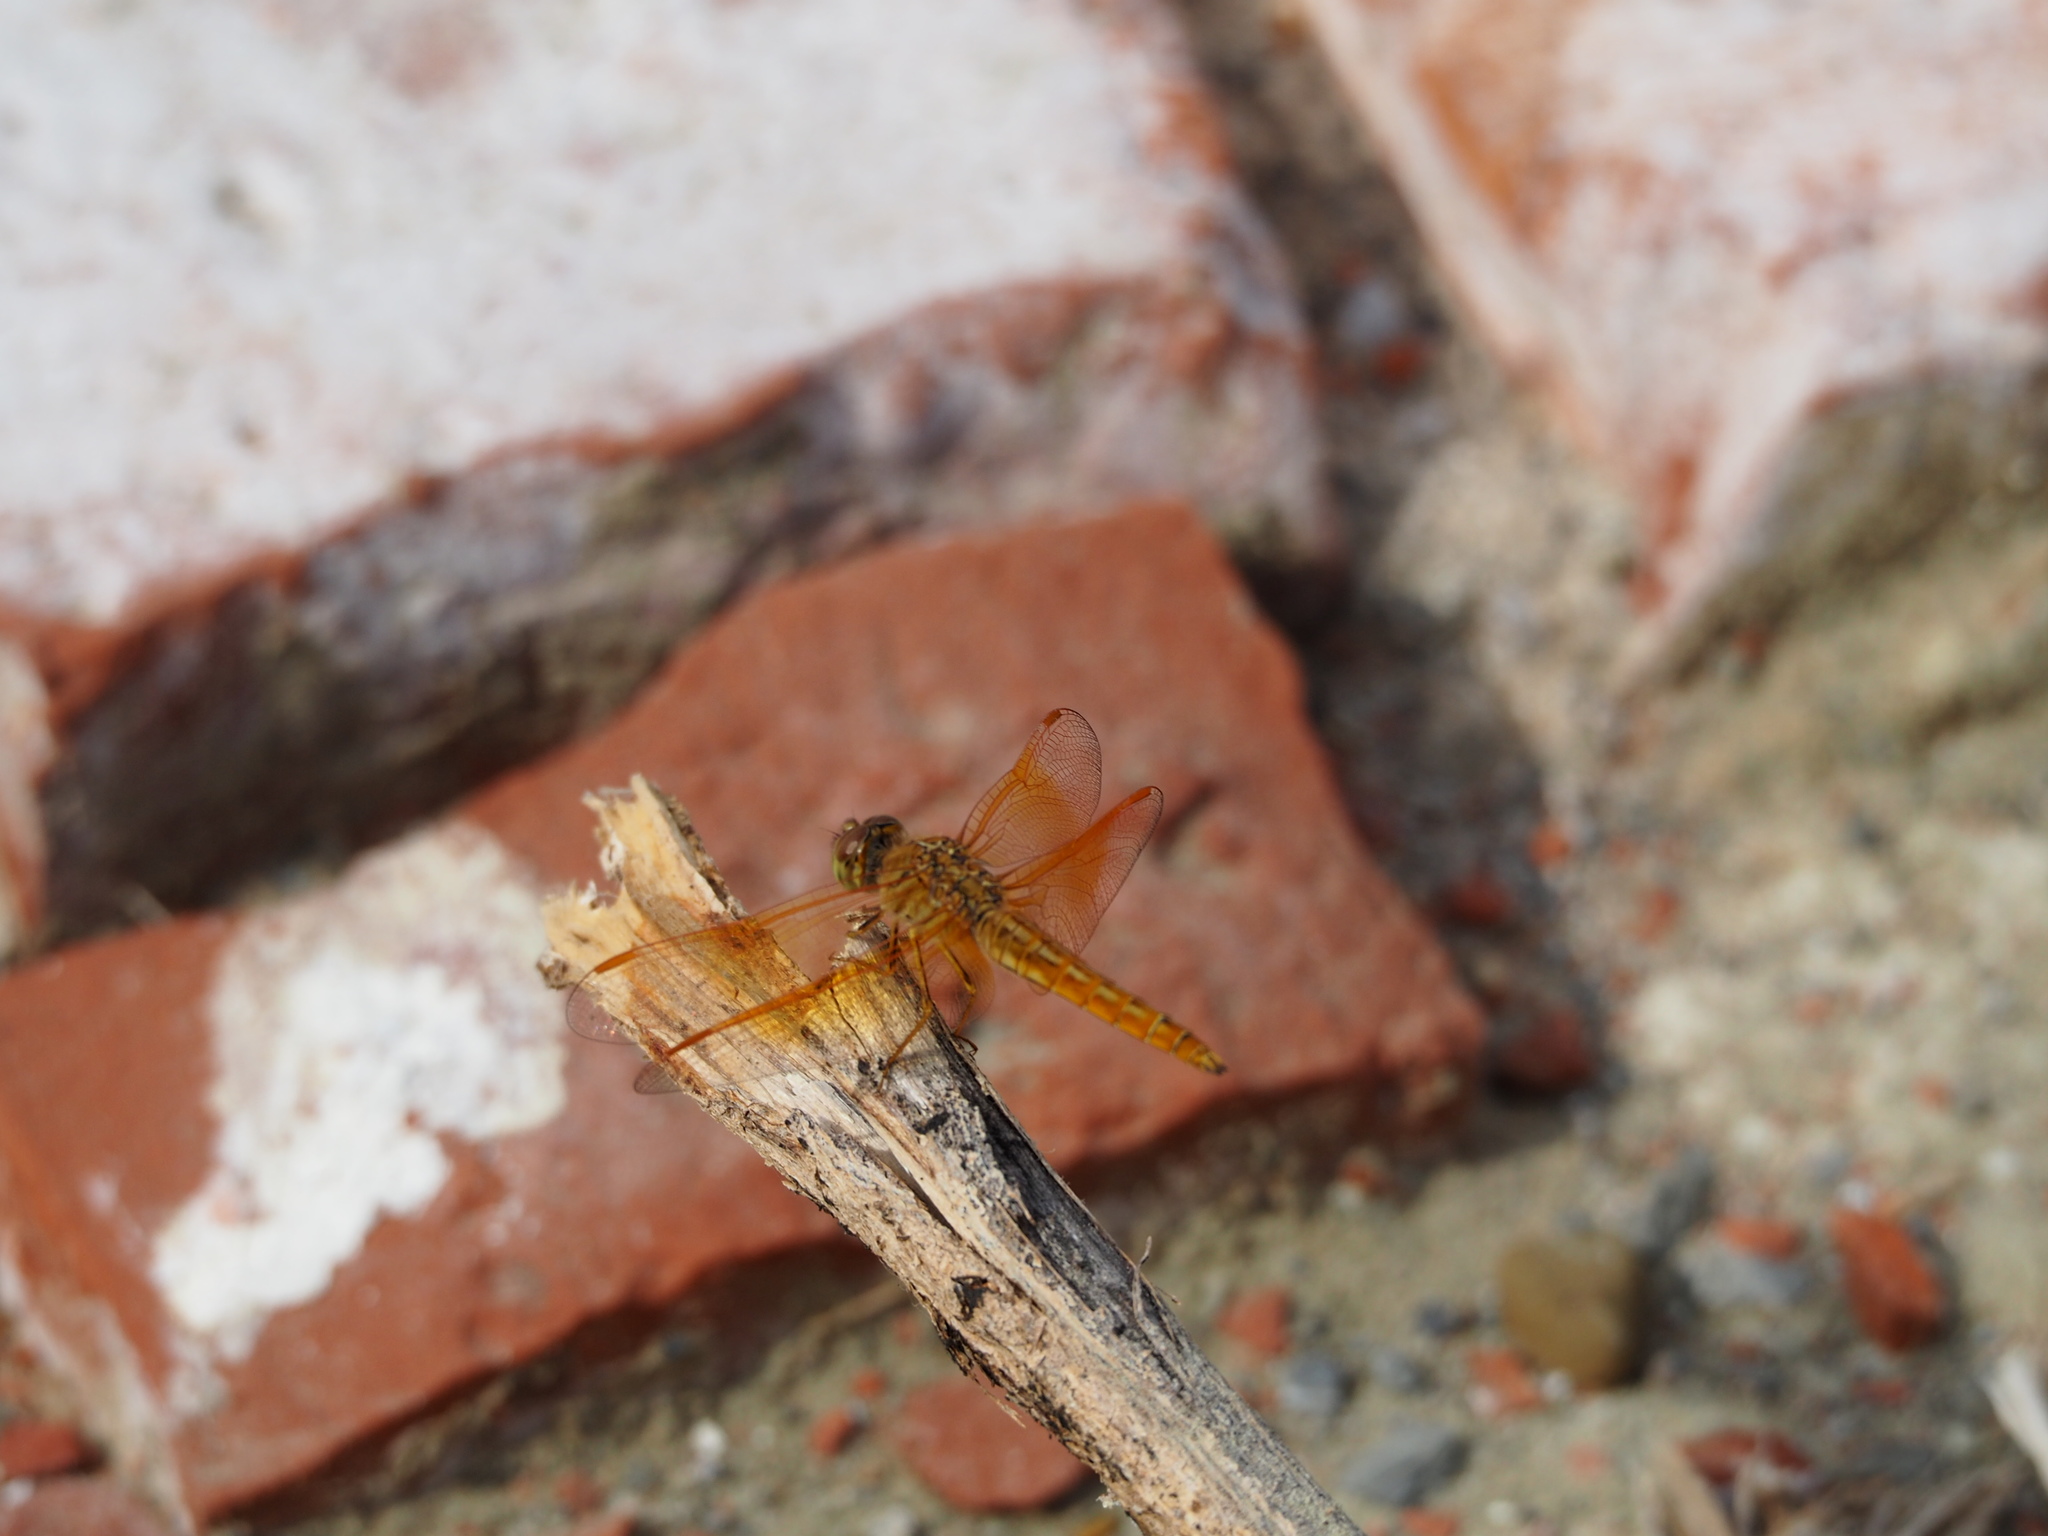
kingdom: Animalia
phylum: Arthropoda
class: Insecta
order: Odonata
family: Libellulidae
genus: Brachythemis
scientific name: Brachythemis contaminata
